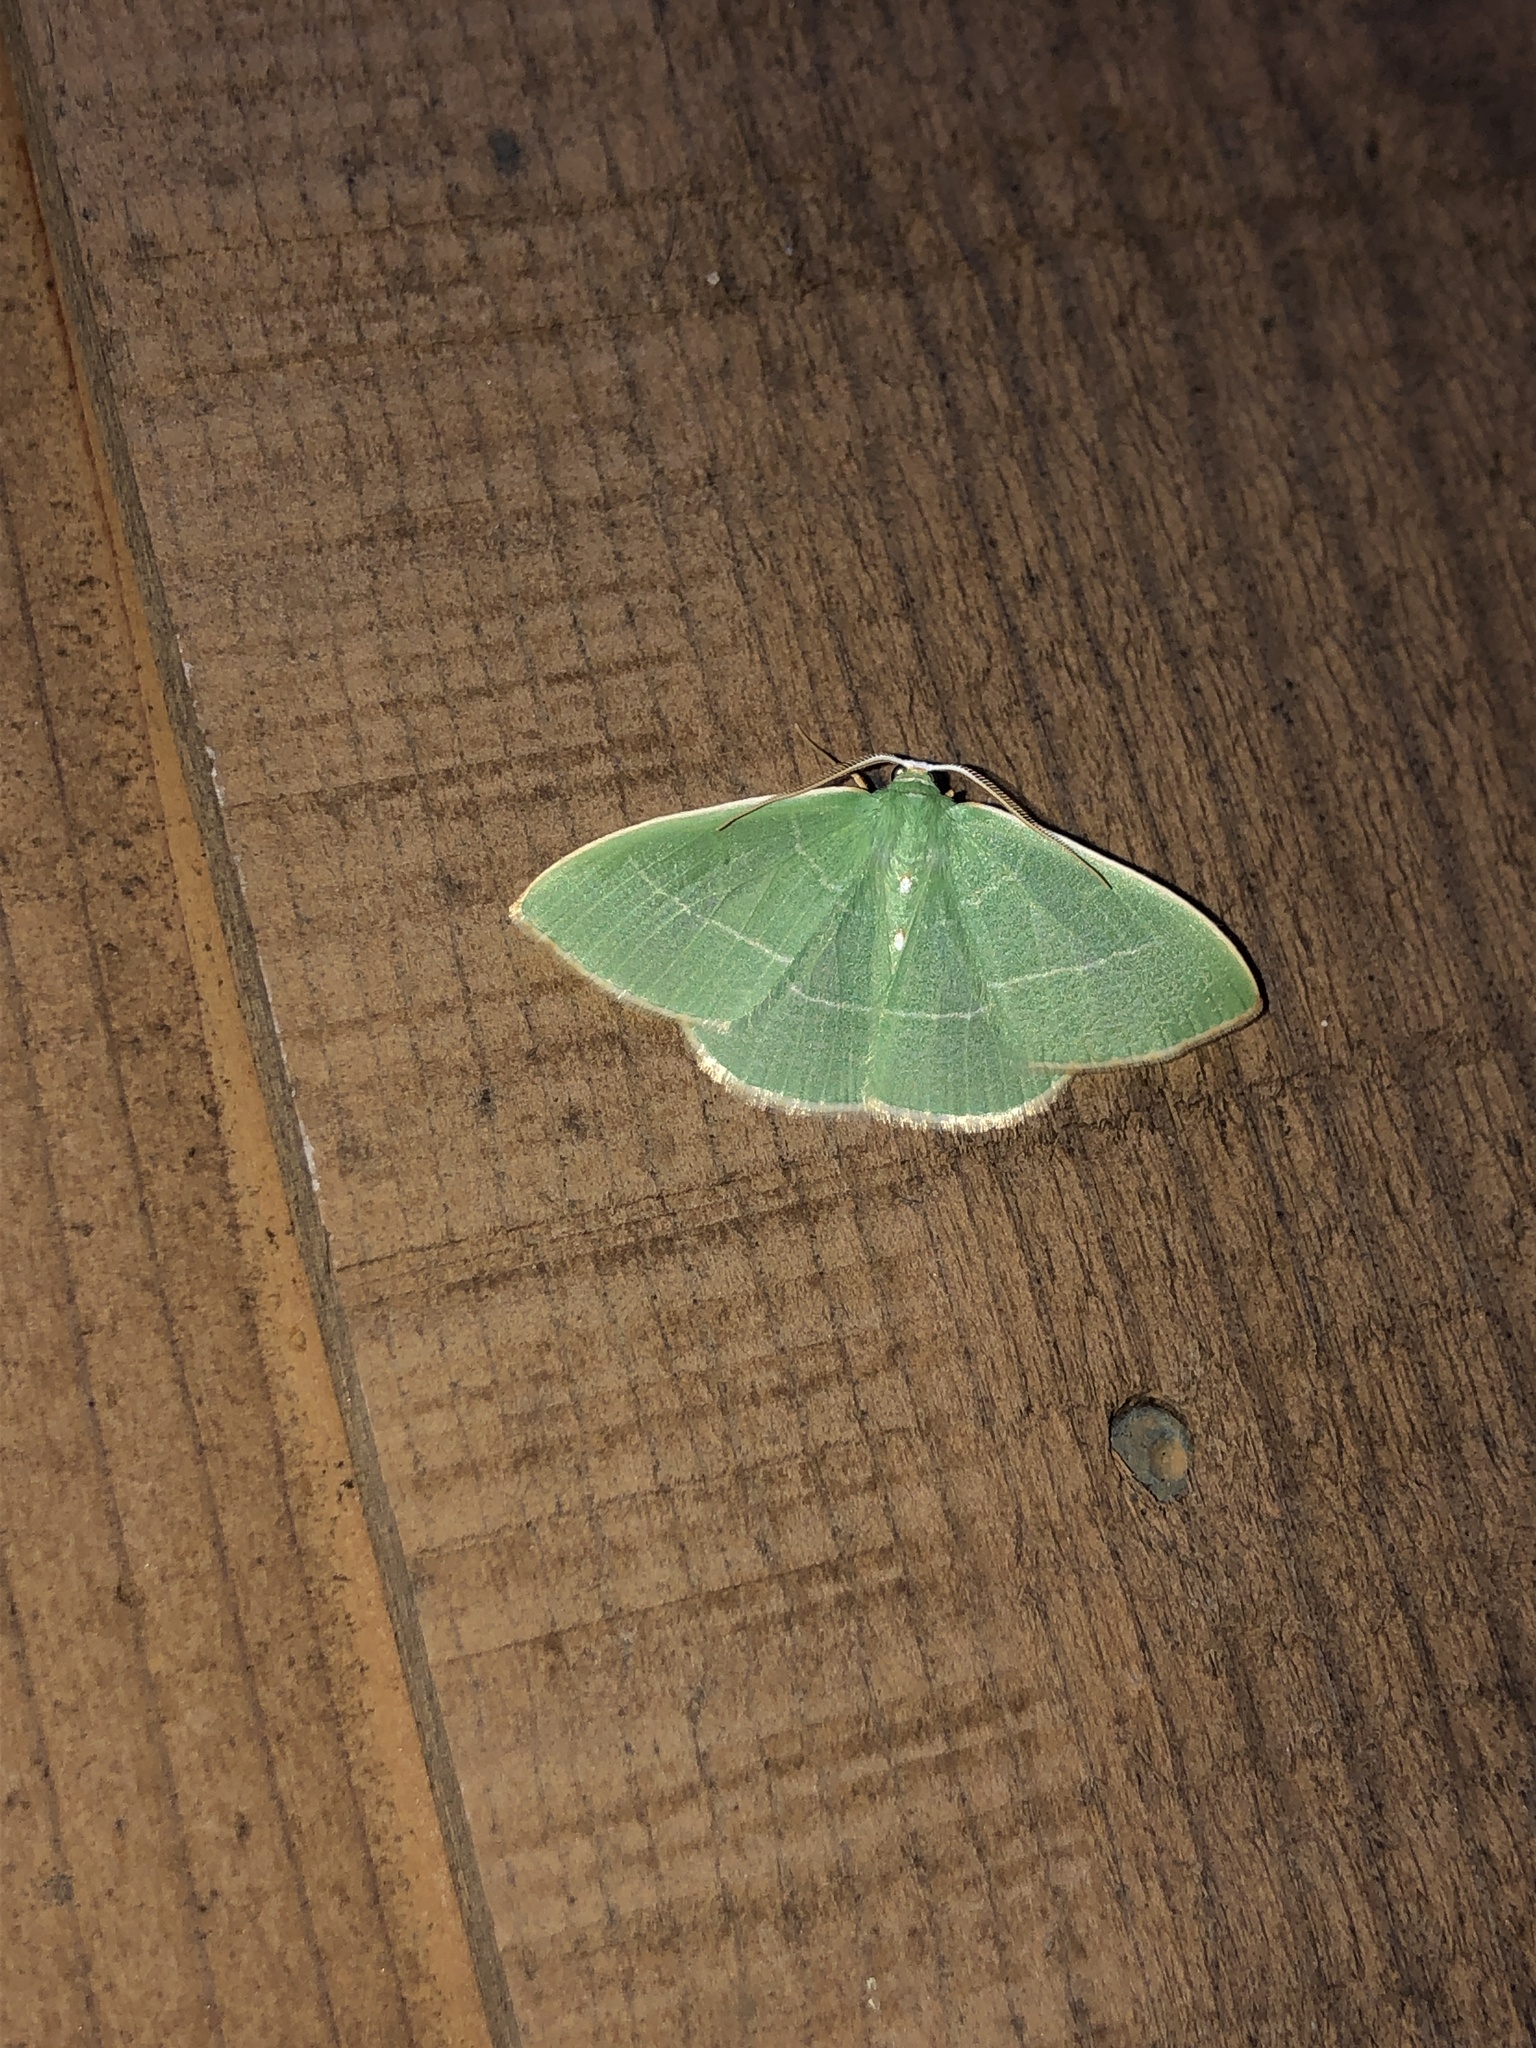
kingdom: Animalia
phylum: Arthropoda
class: Insecta
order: Lepidoptera
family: Geometridae
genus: Nemoria
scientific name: Nemoria darwiniata
